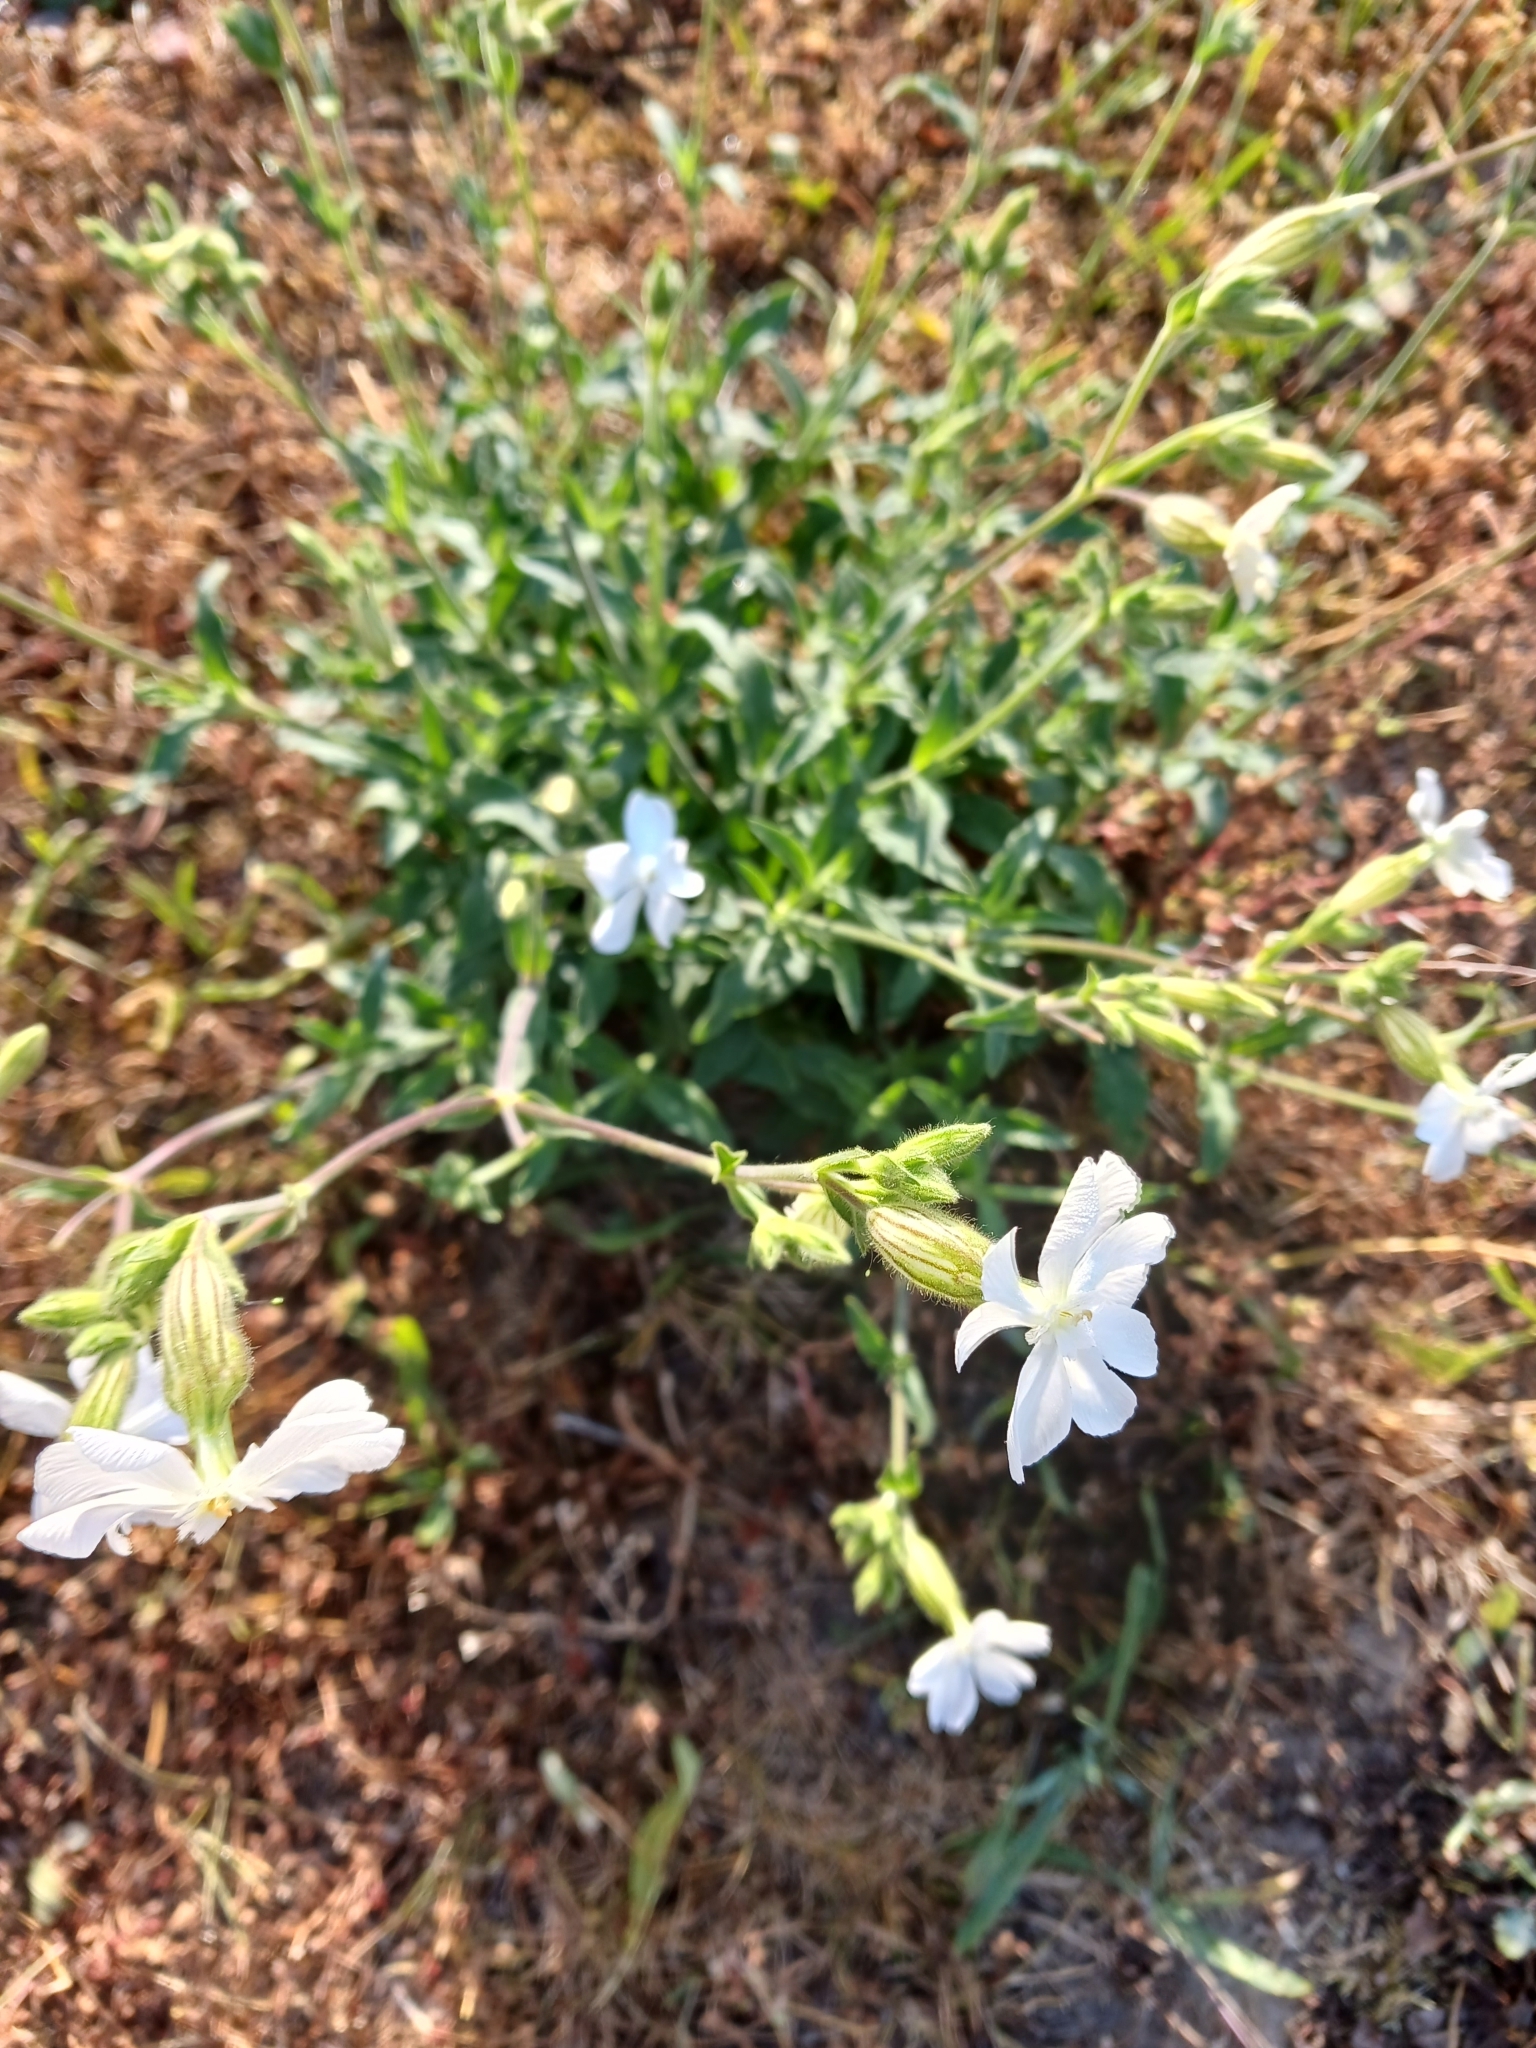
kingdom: Plantae
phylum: Tracheophyta
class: Magnoliopsida
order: Caryophyllales
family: Caryophyllaceae
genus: Silene
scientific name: Silene latifolia
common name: White campion
